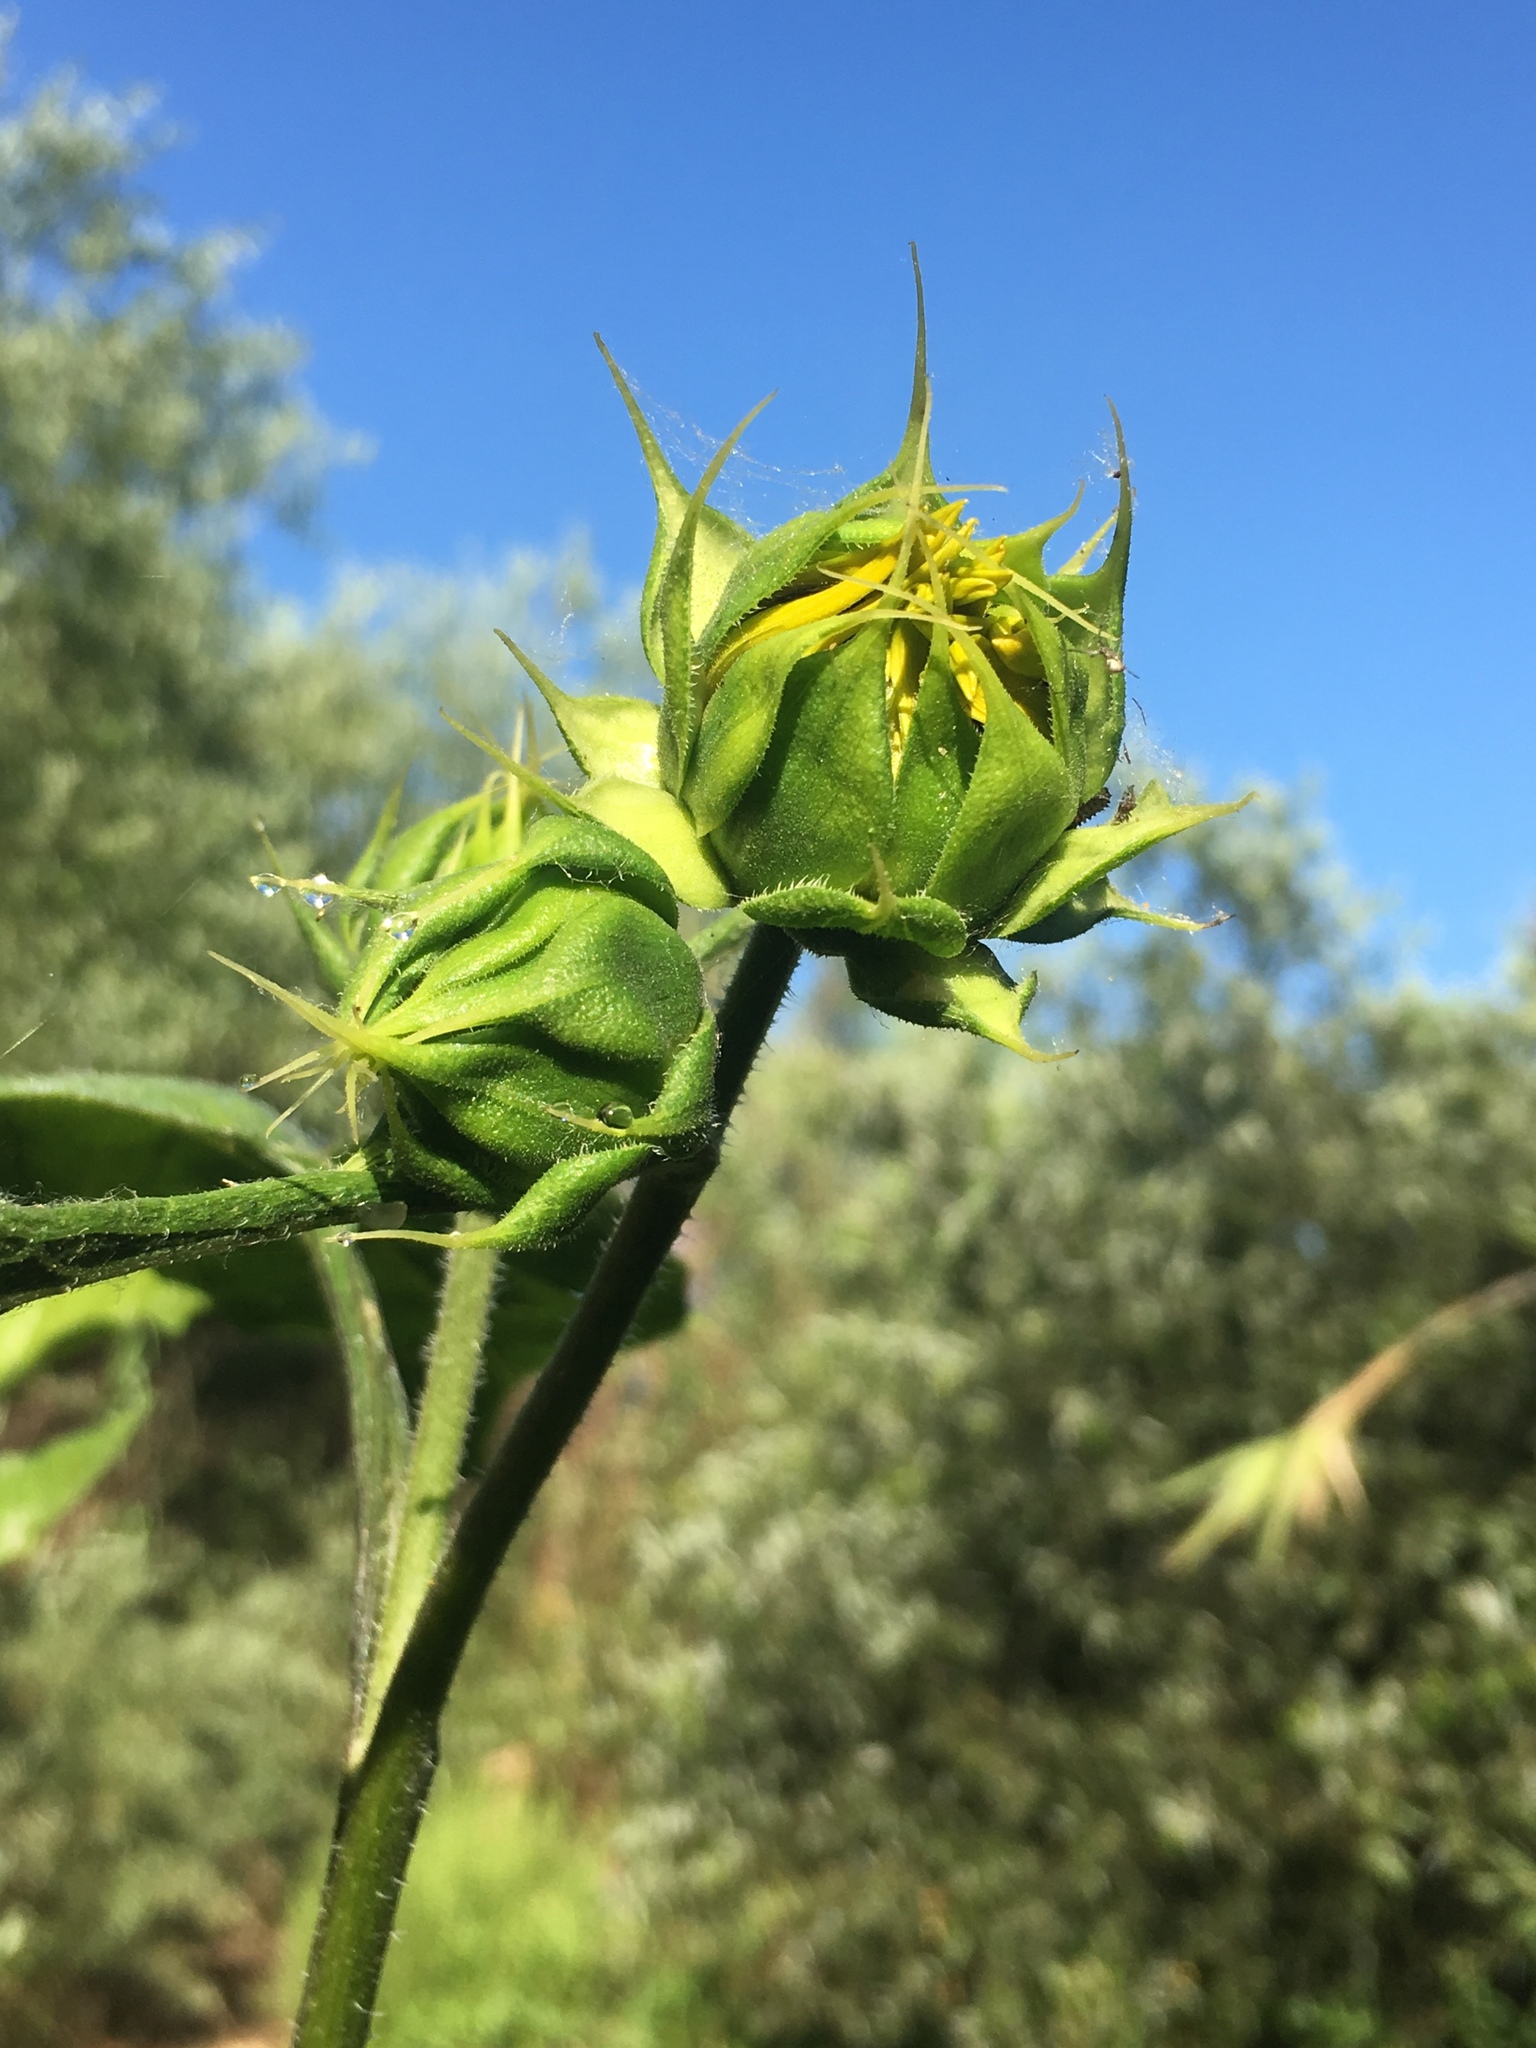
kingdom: Plantae
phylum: Tracheophyta
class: Magnoliopsida
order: Asterales
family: Asteraceae
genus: Helianthus
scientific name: Helianthus annuus
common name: Sunflower
